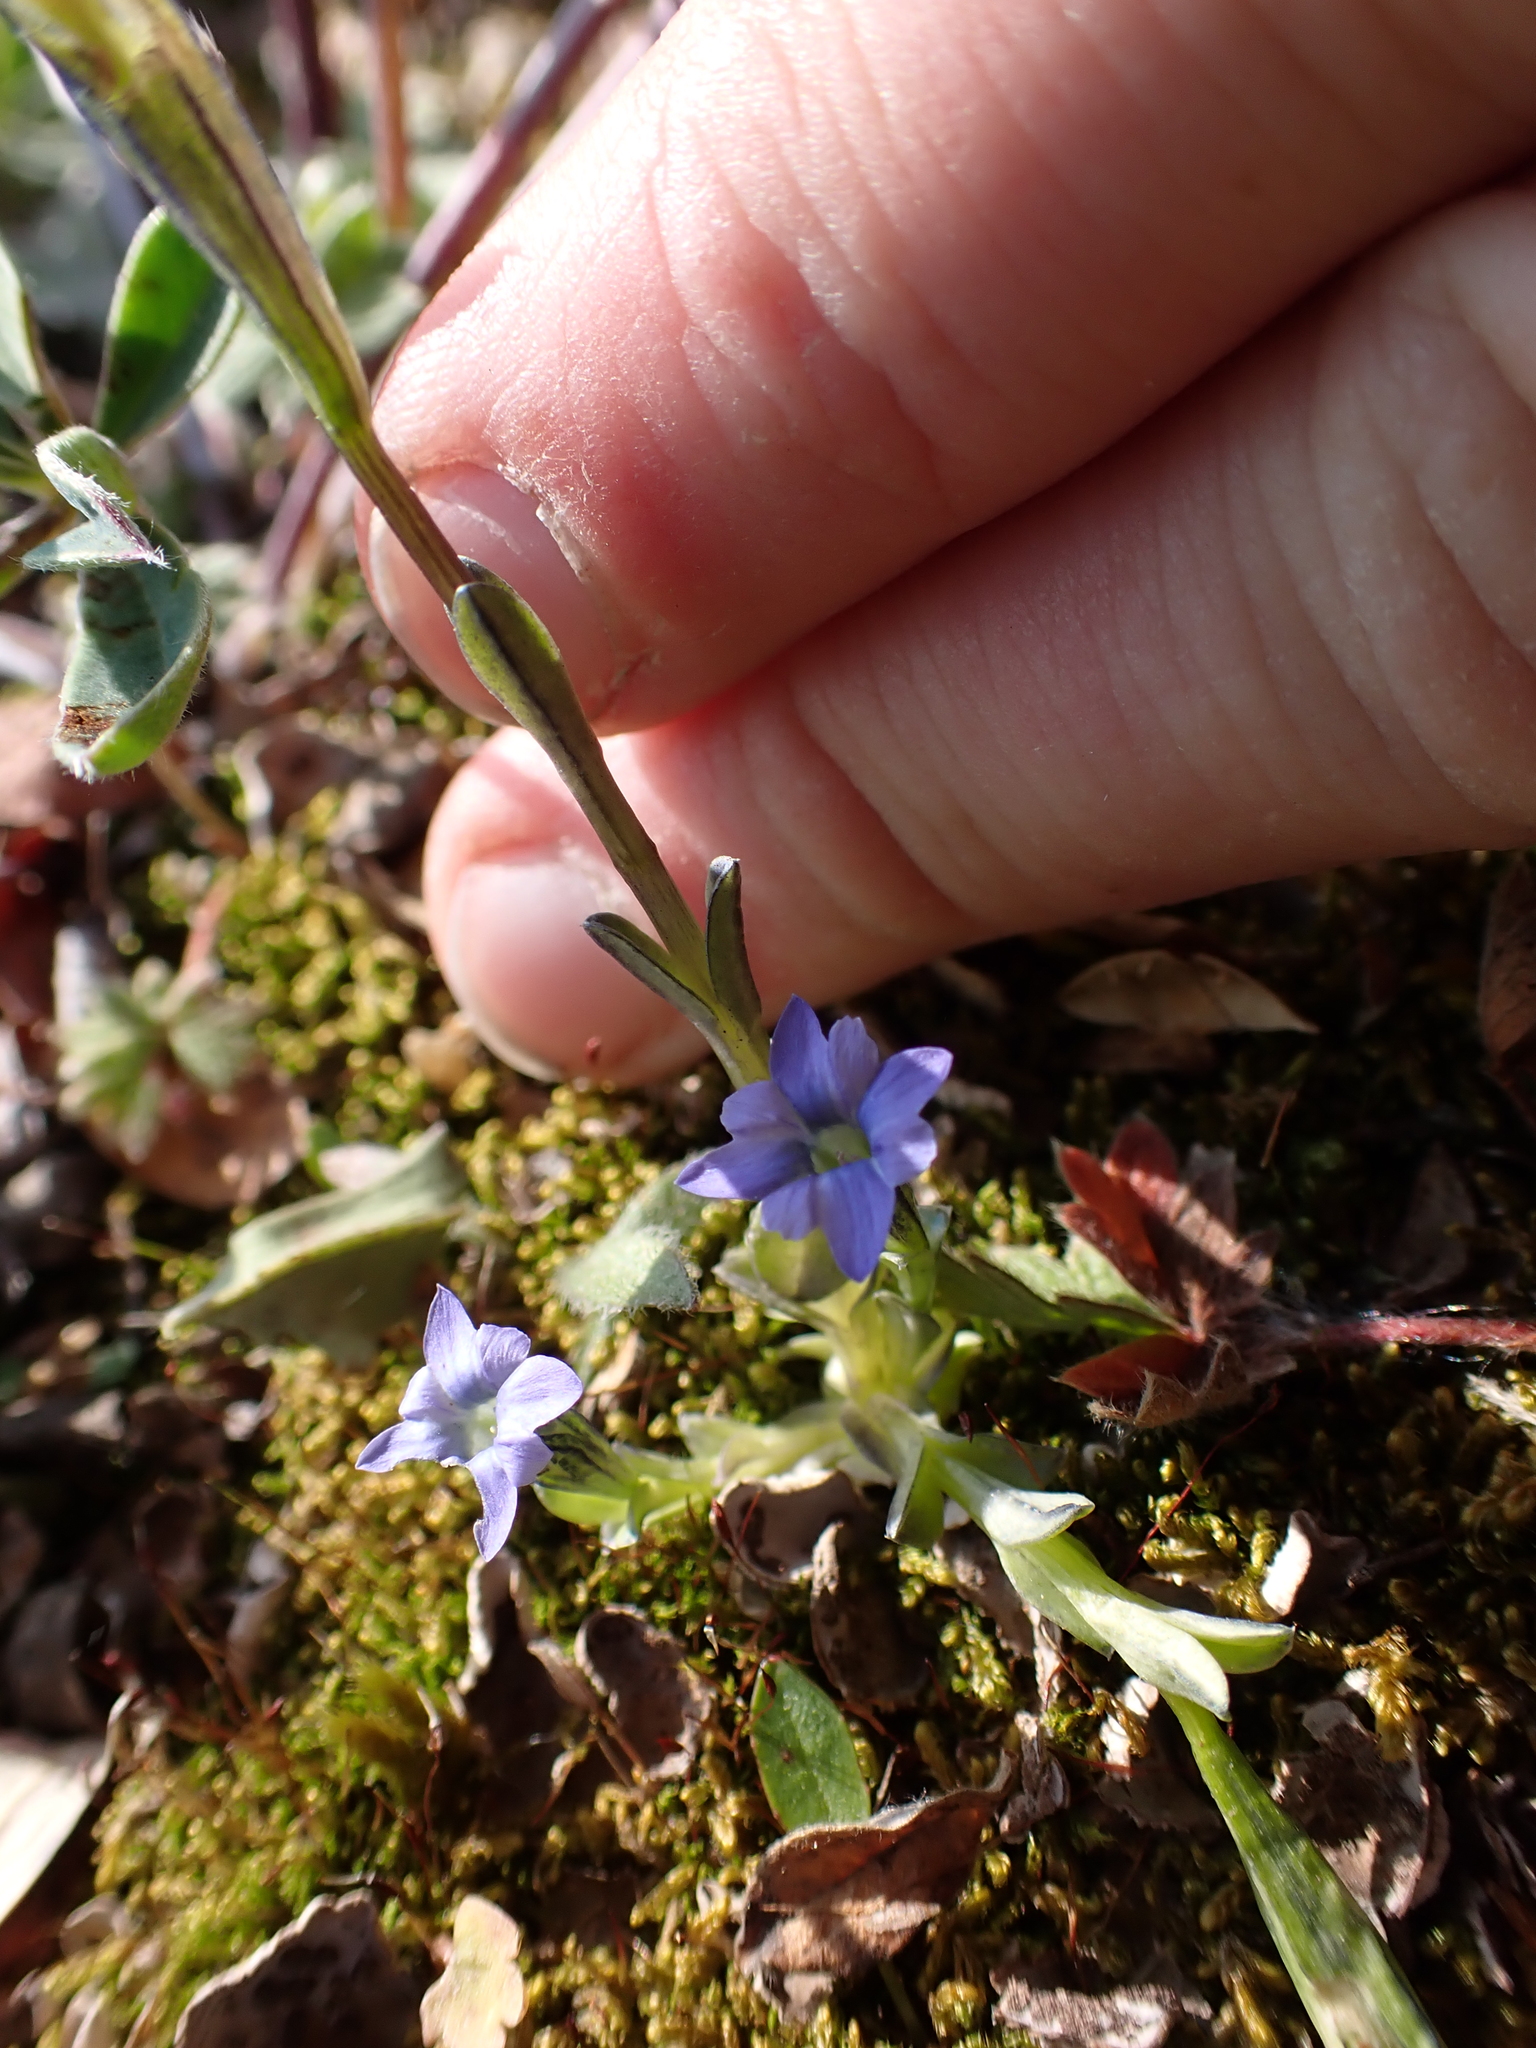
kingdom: Plantae
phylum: Tracheophyta
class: Magnoliopsida
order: Gentianales
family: Gentianaceae
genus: Gentiana
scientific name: Gentiana prostrata
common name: Moss gentian
